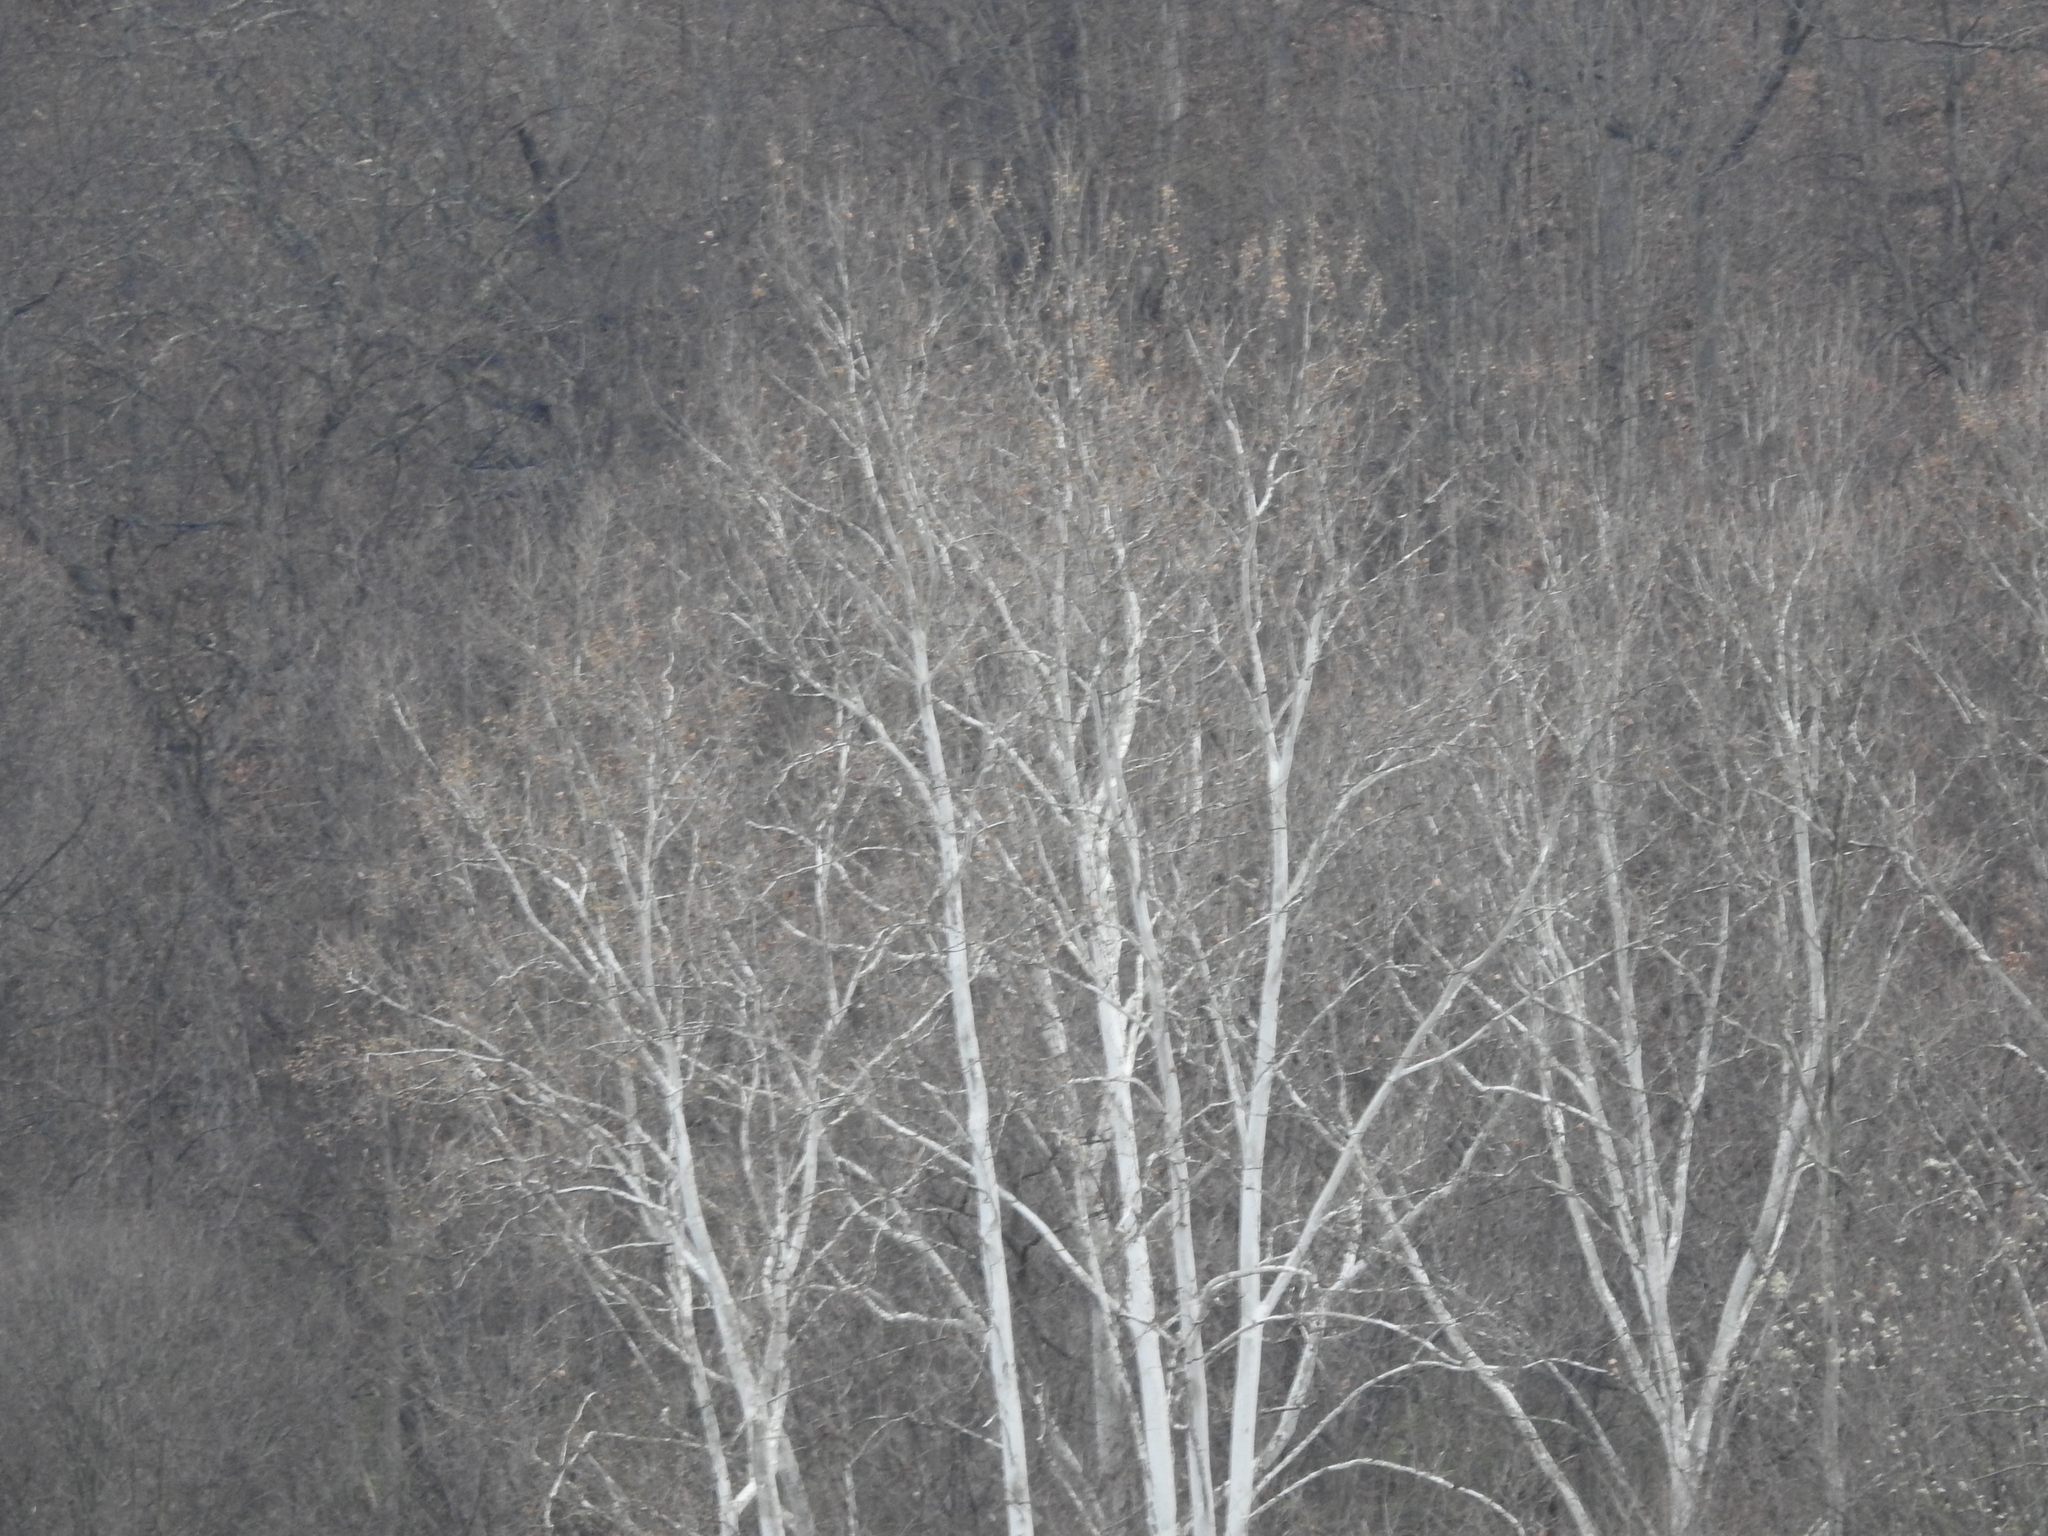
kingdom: Plantae
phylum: Tracheophyta
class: Magnoliopsida
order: Proteales
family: Platanaceae
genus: Platanus
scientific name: Platanus occidentalis
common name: American sycamore
